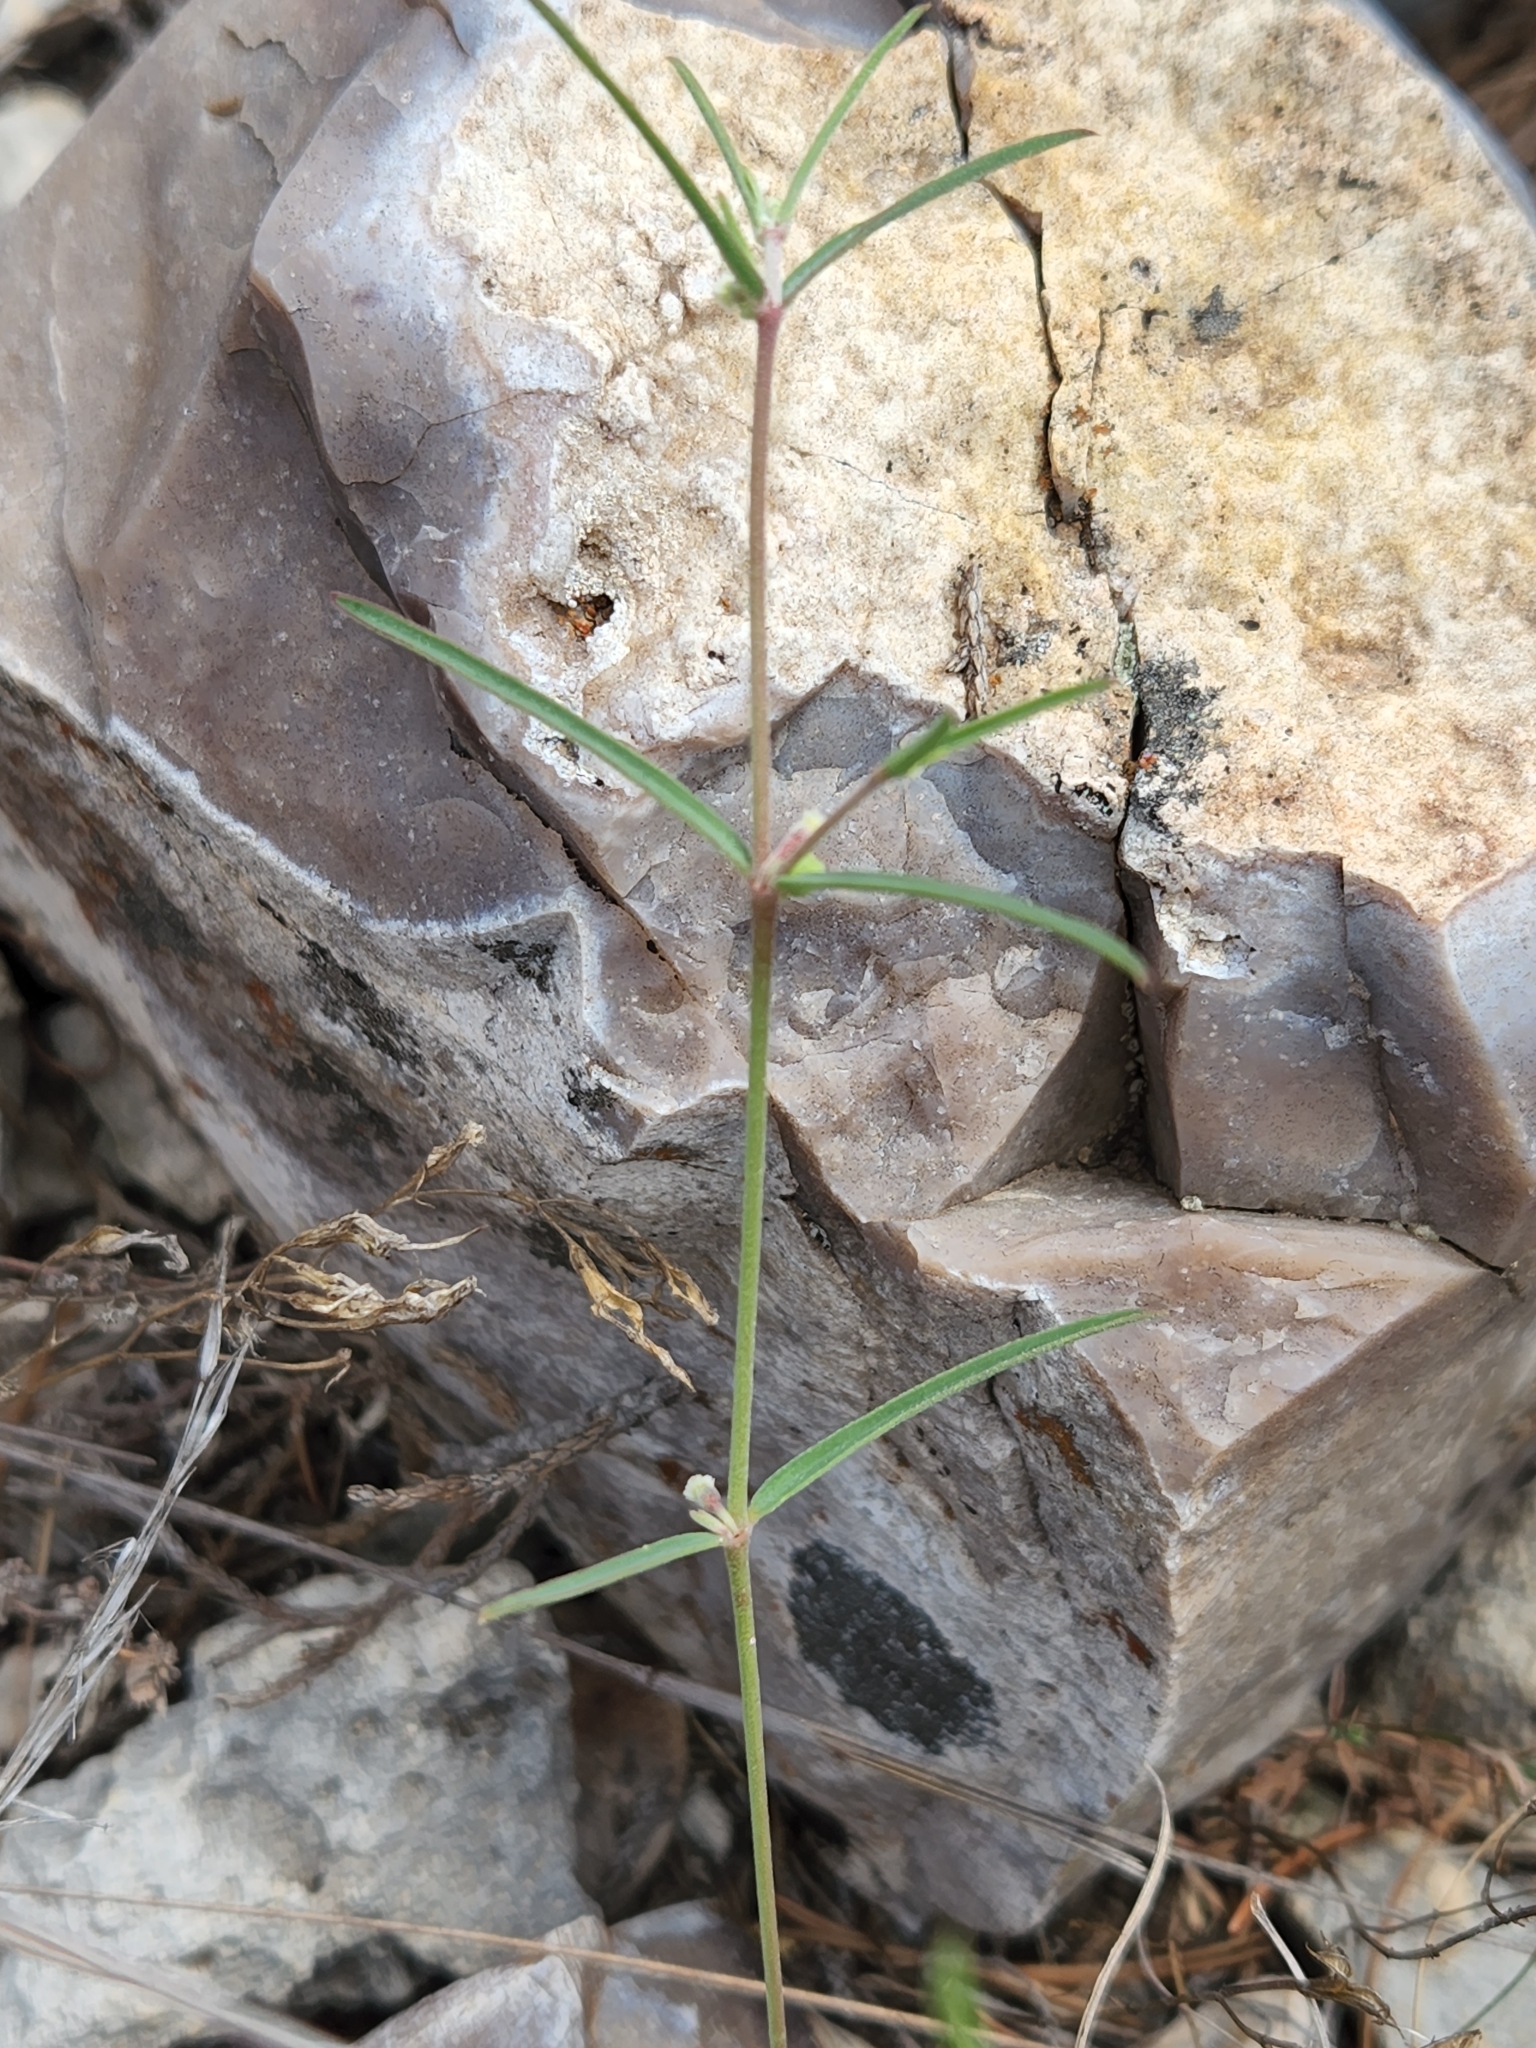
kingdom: Plantae
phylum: Tracheophyta
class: Magnoliopsida
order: Malpighiales
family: Euphorbiaceae
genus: Euphorbia
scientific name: Euphorbia angusta
